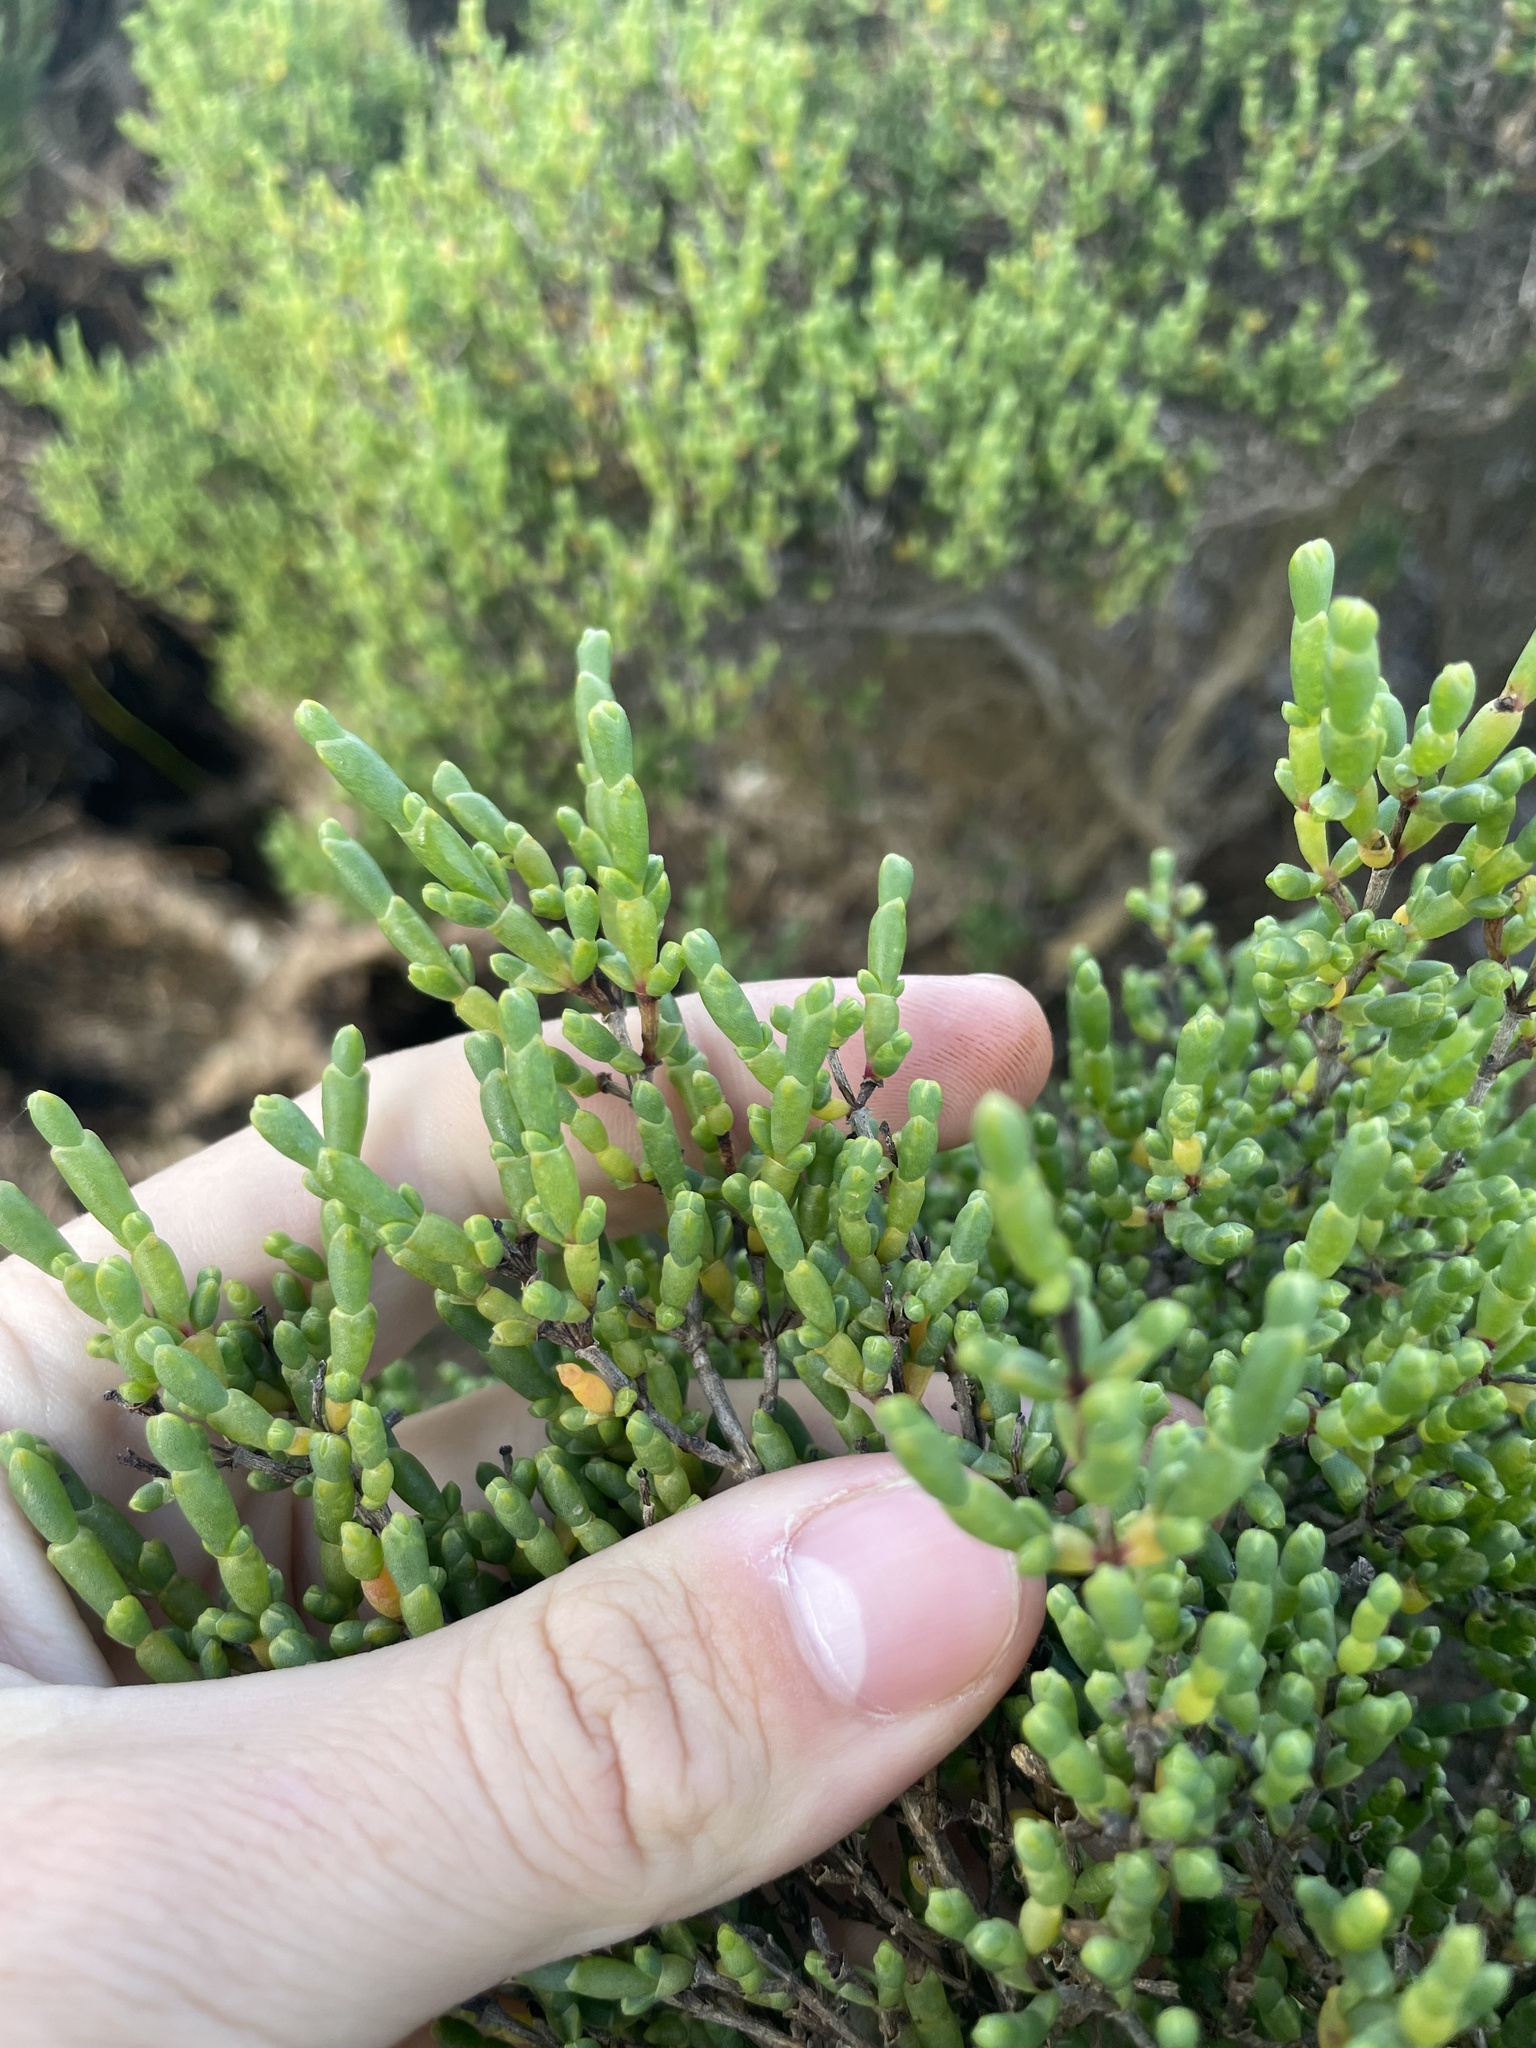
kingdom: Plantae
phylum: Tracheophyta
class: Magnoliopsida
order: Caryophyllales
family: Amaranthaceae
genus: Tecticornia
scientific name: Tecticornia arbuscula
